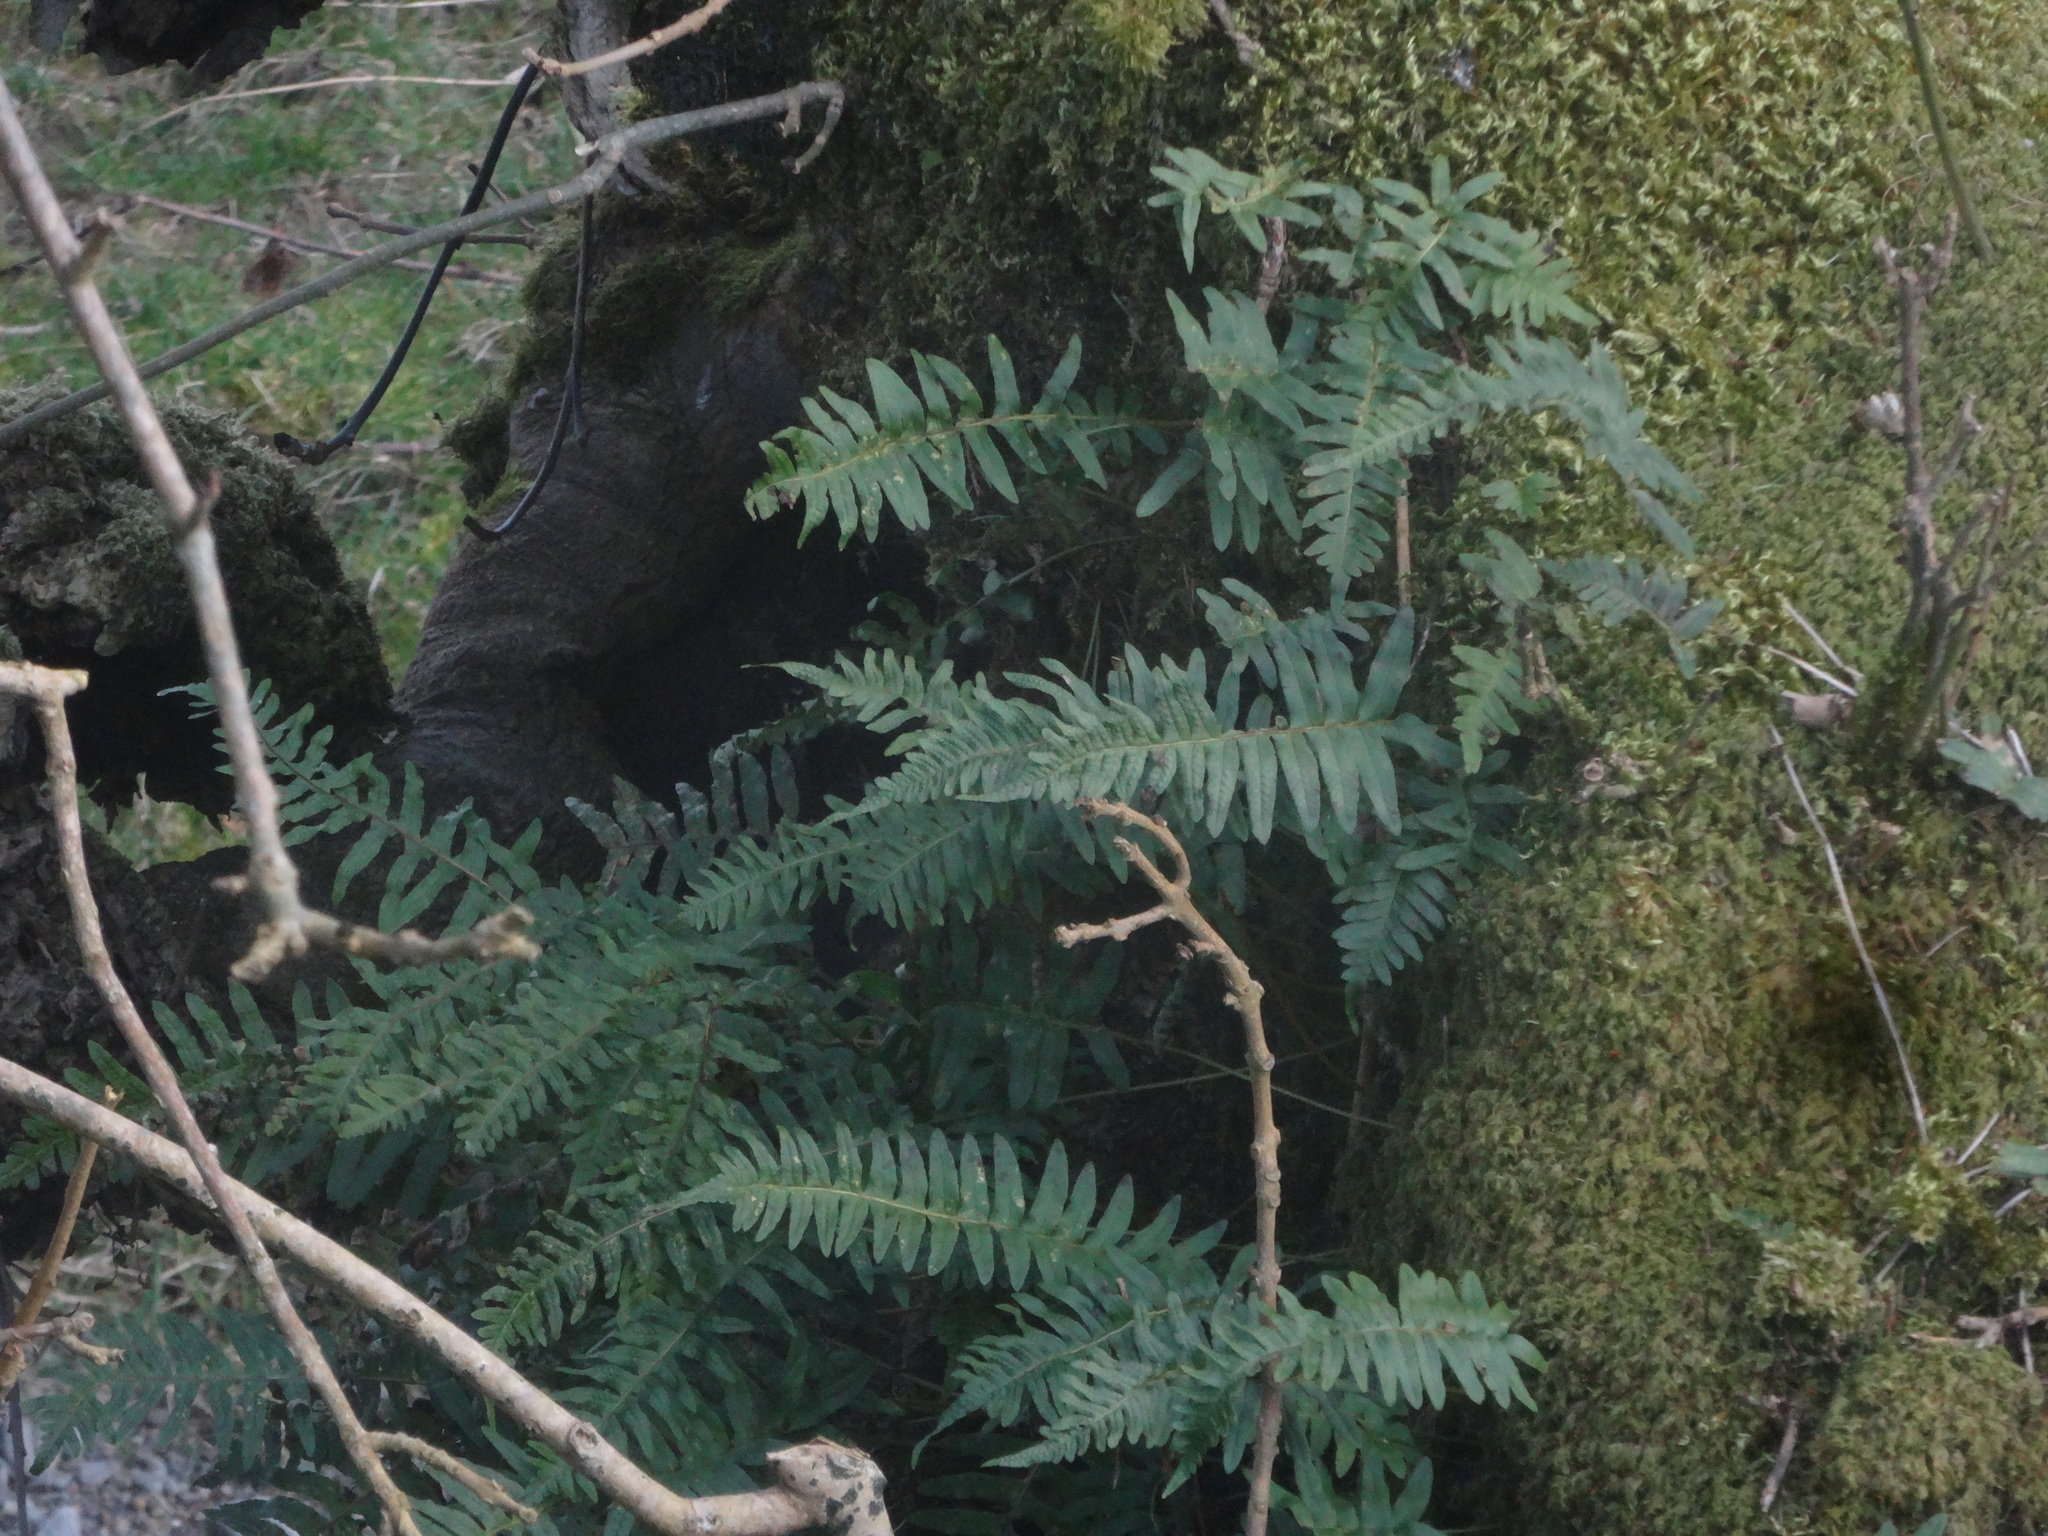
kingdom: Plantae
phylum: Tracheophyta
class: Polypodiopsida
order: Polypodiales
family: Polypodiaceae
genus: Polypodium
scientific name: Polypodium vulgare
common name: Common polypody
